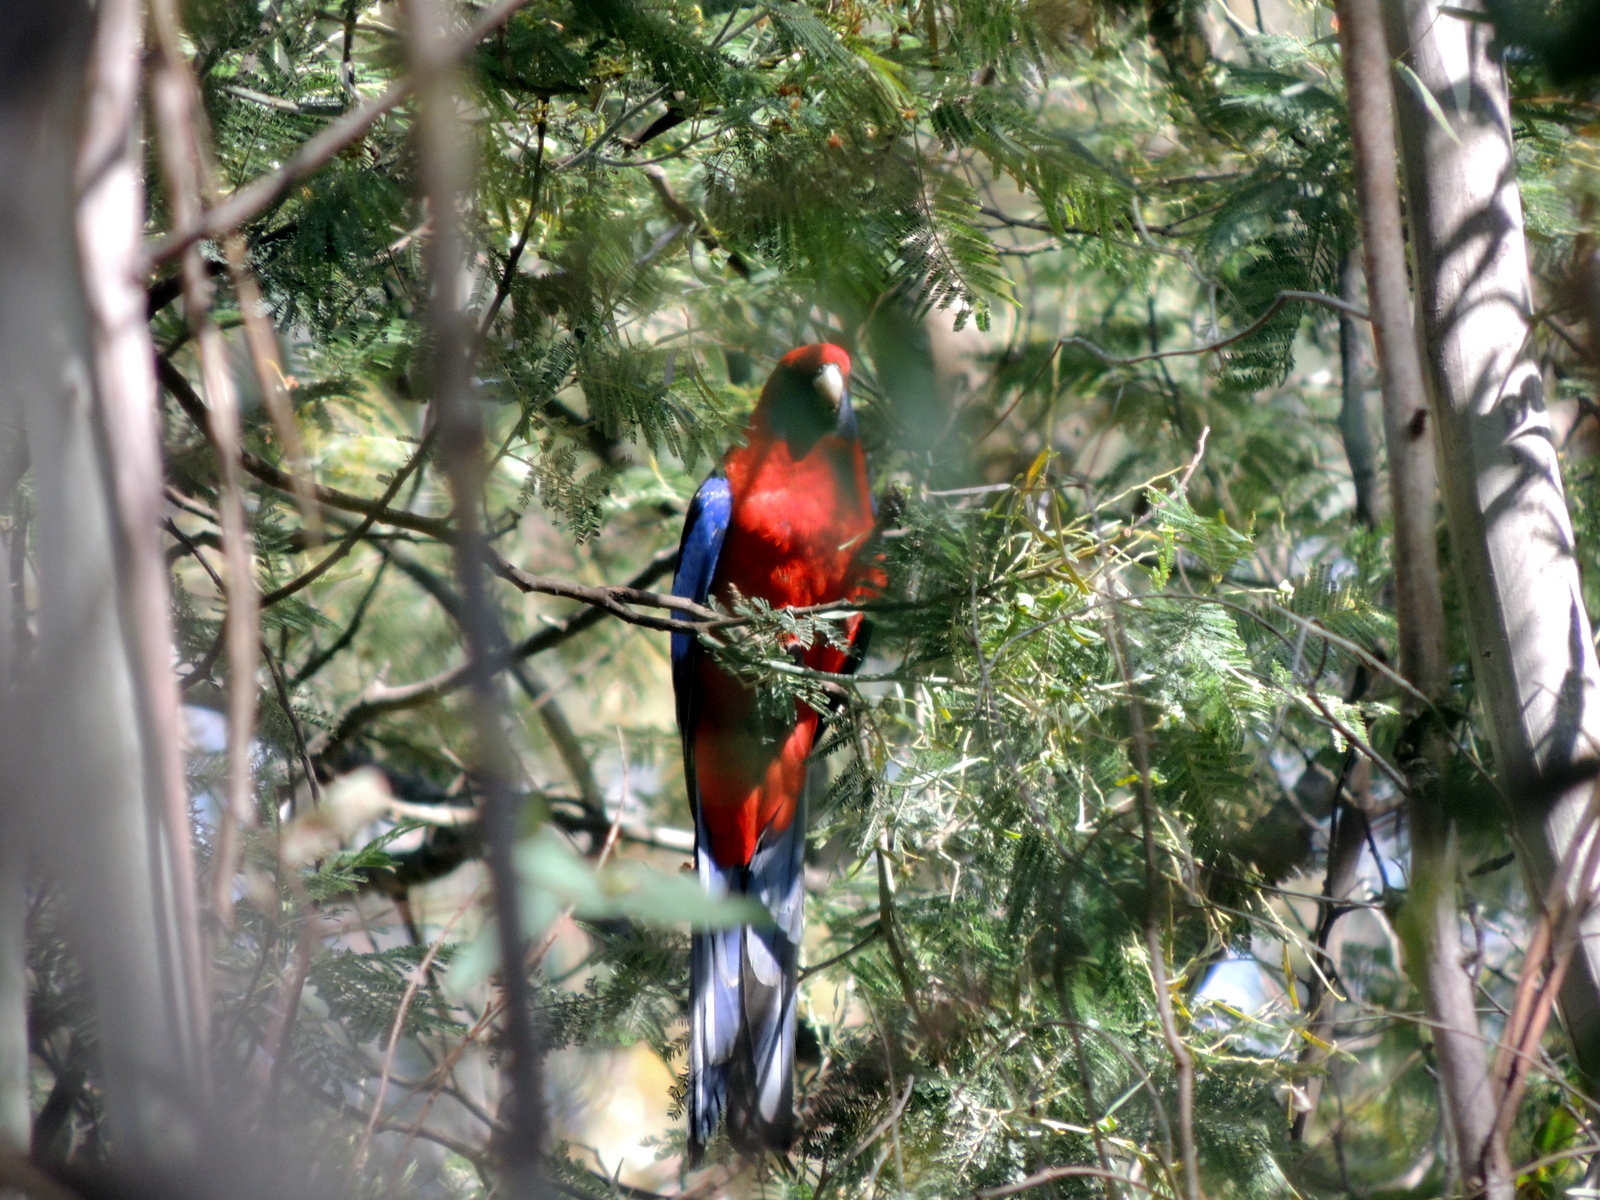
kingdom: Animalia
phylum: Chordata
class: Aves
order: Psittaciformes
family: Psittacidae
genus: Platycercus
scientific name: Platycercus elegans
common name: Crimson rosella
